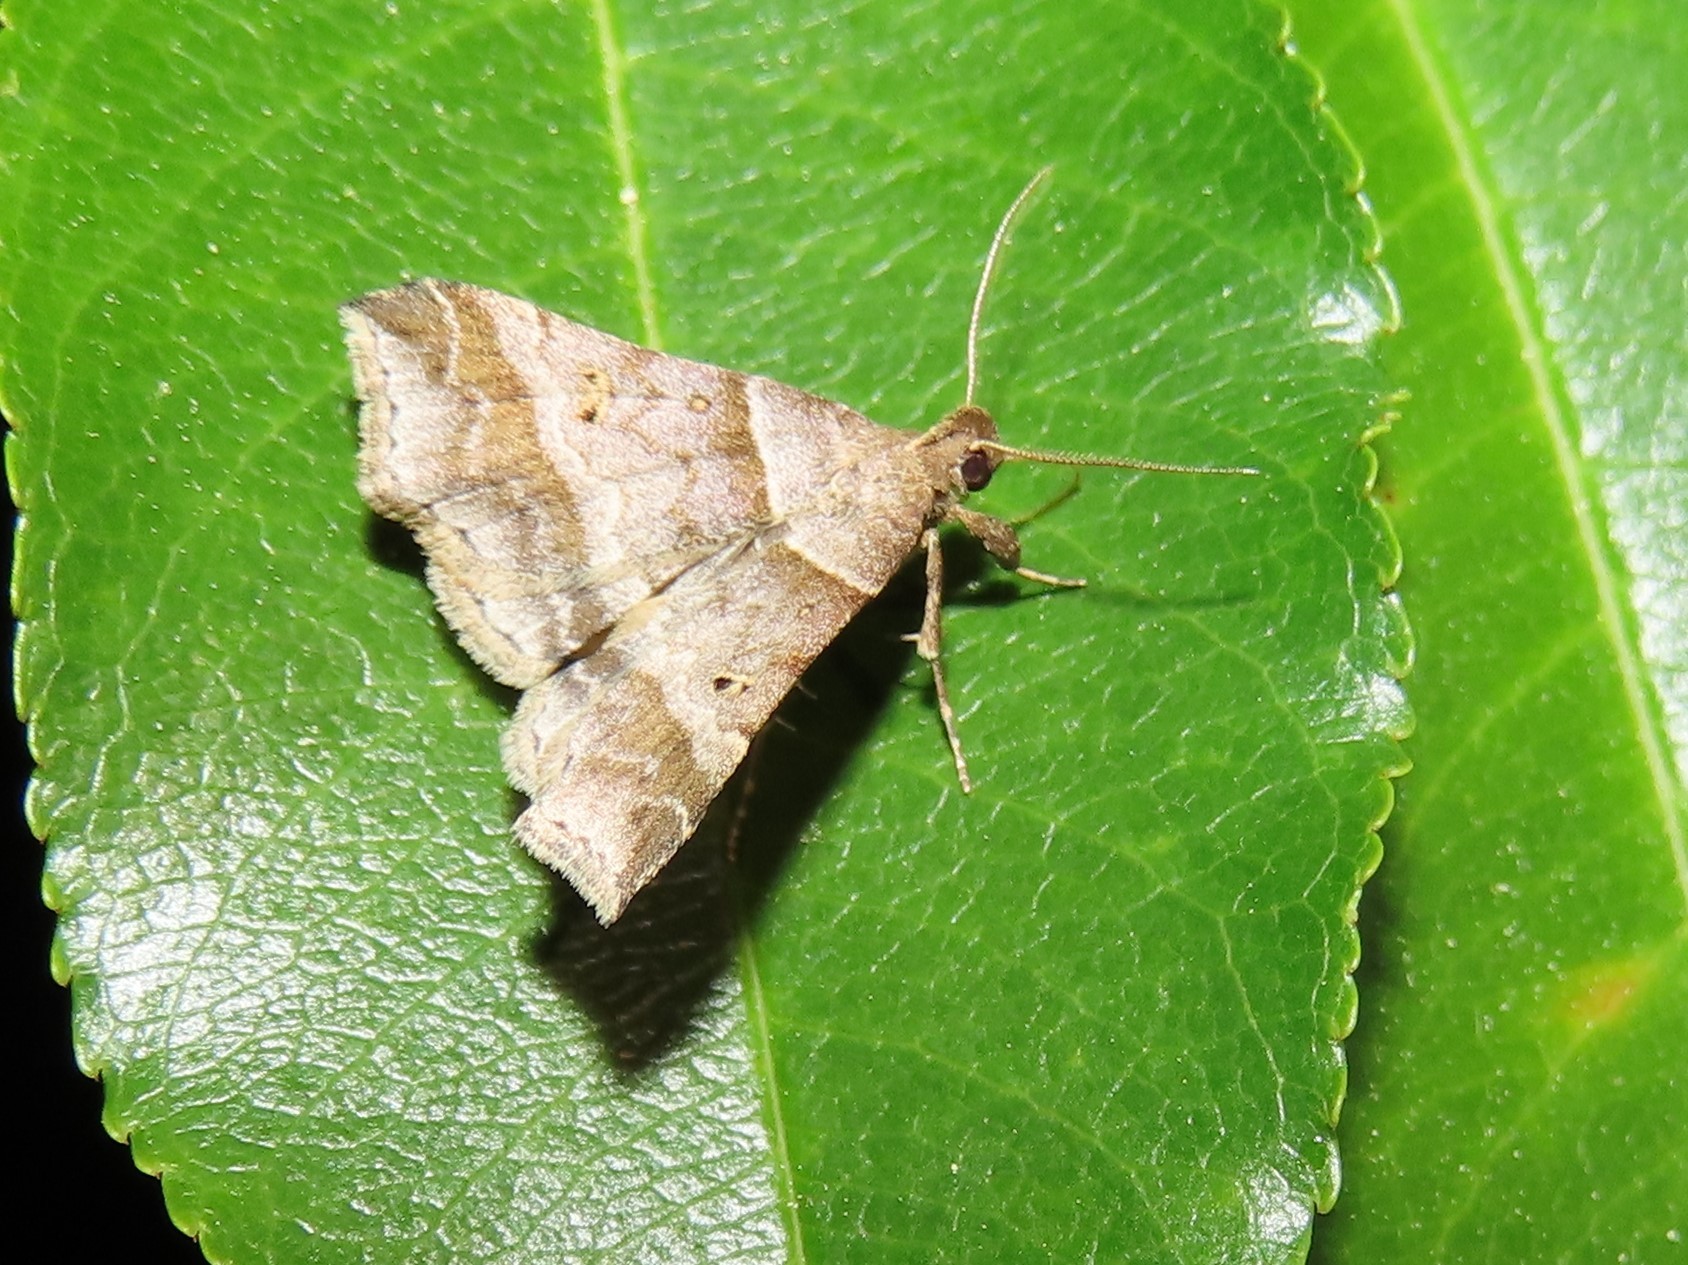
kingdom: Animalia
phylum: Arthropoda
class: Insecta
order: Lepidoptera
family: Erebidae
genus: Phaeolita
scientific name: Phaeolita pyramusalis
